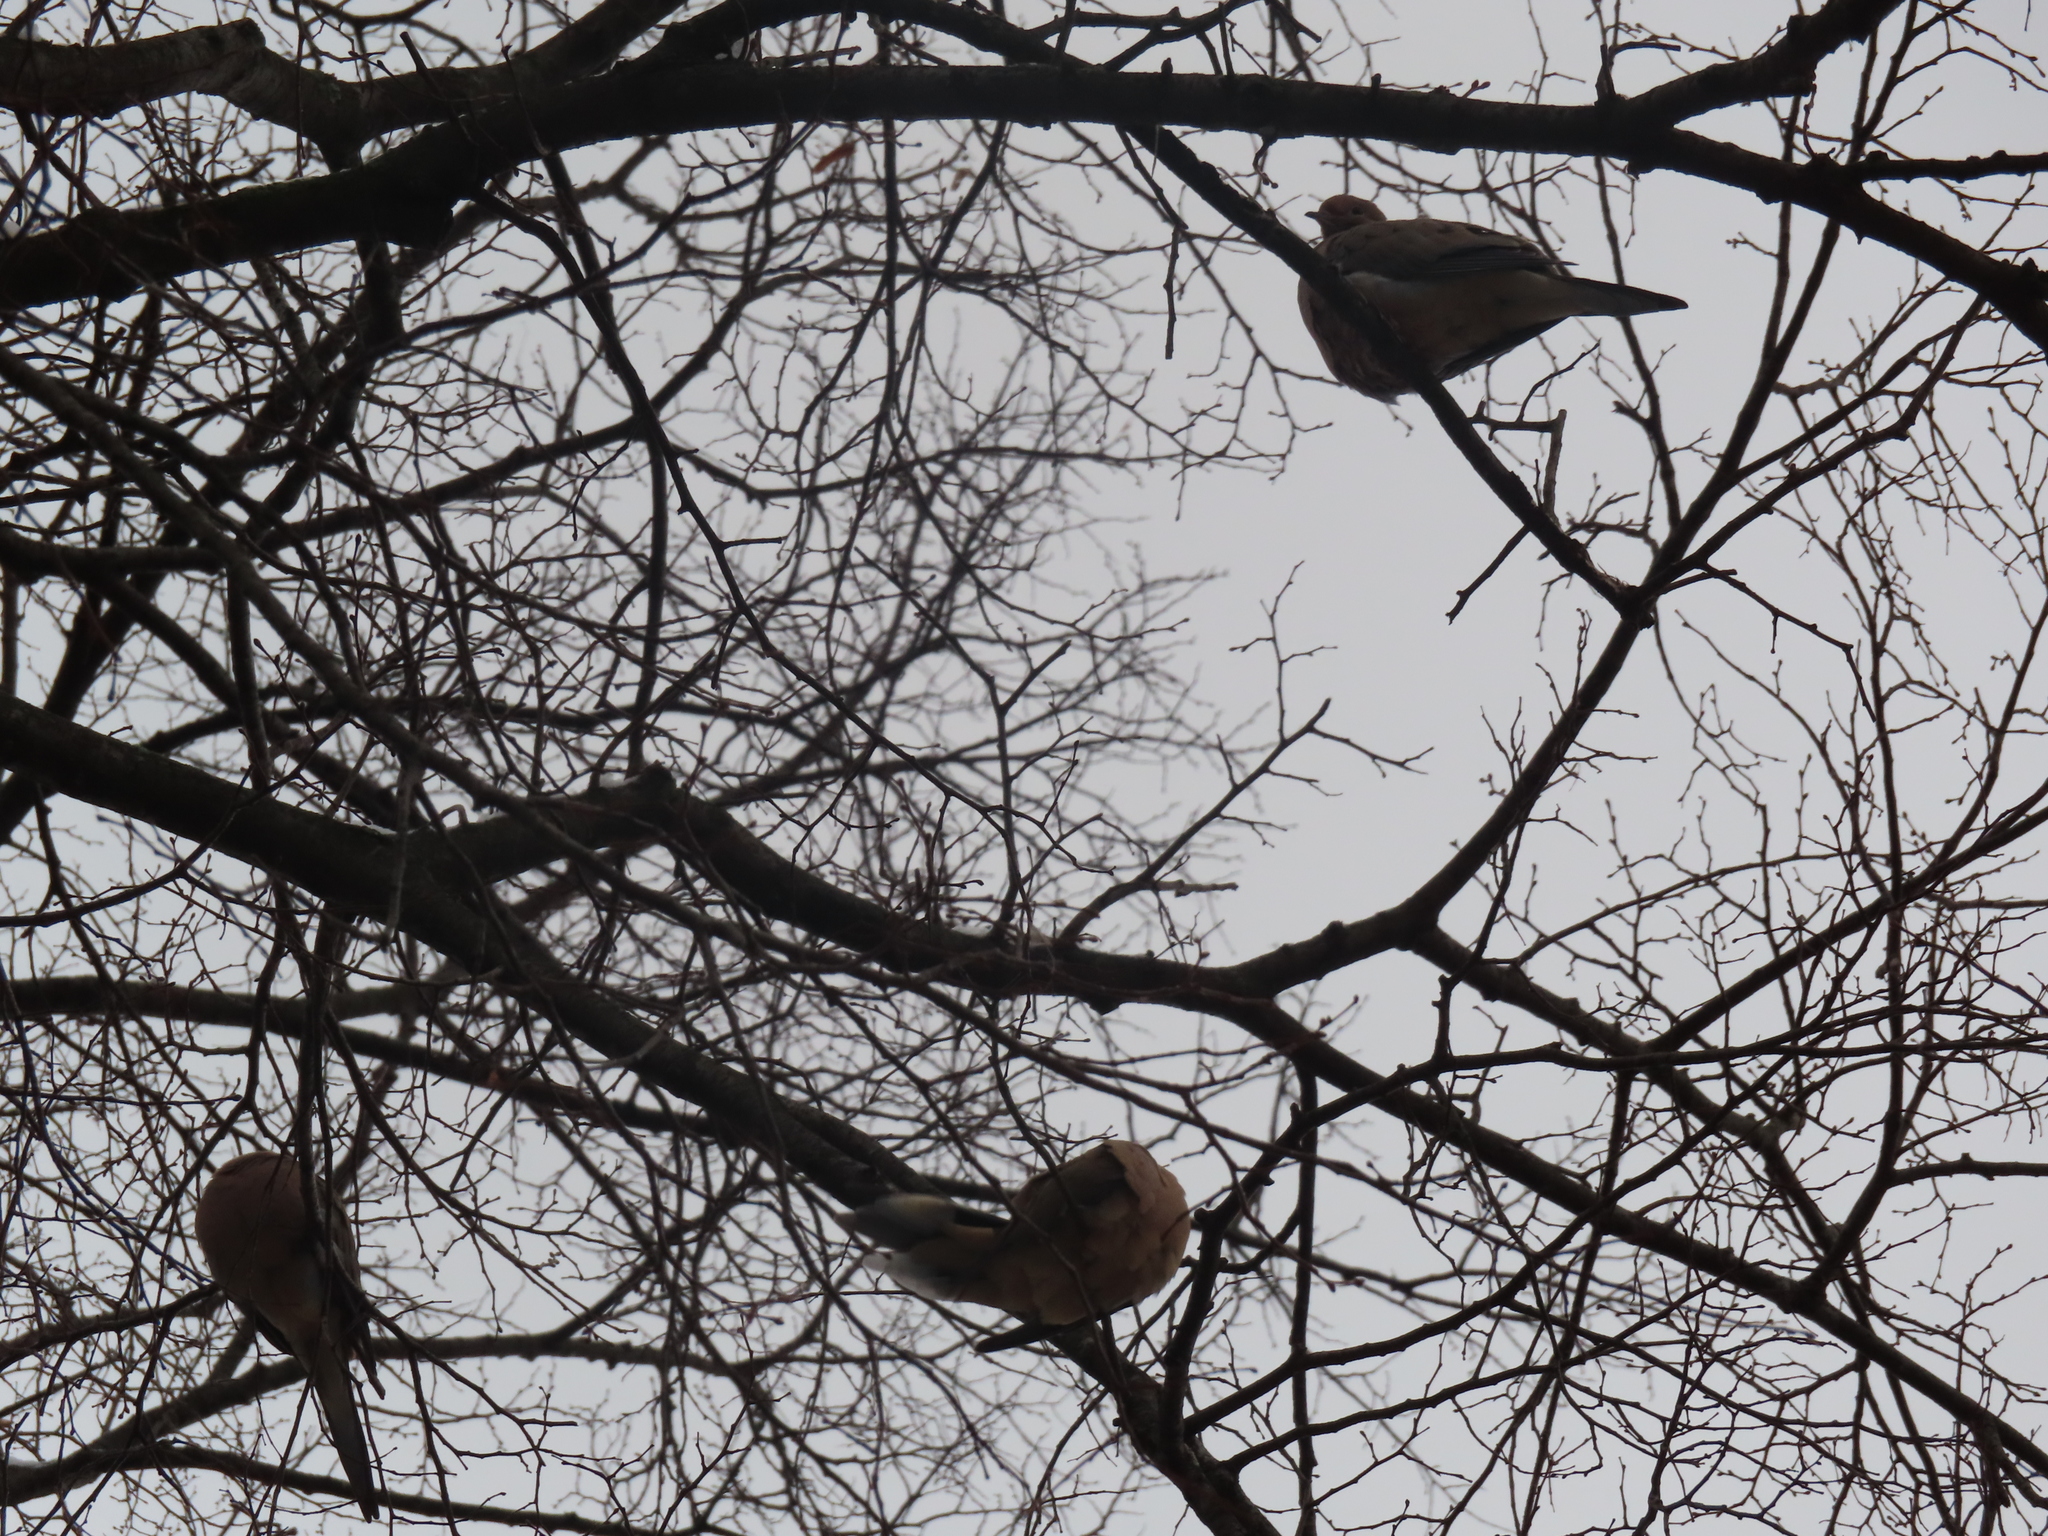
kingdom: Animalia
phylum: Chordata
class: Aves
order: Columbiformes
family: Columbidae
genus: Zenaida
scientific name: Zenaida macroura
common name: Mourning dove
